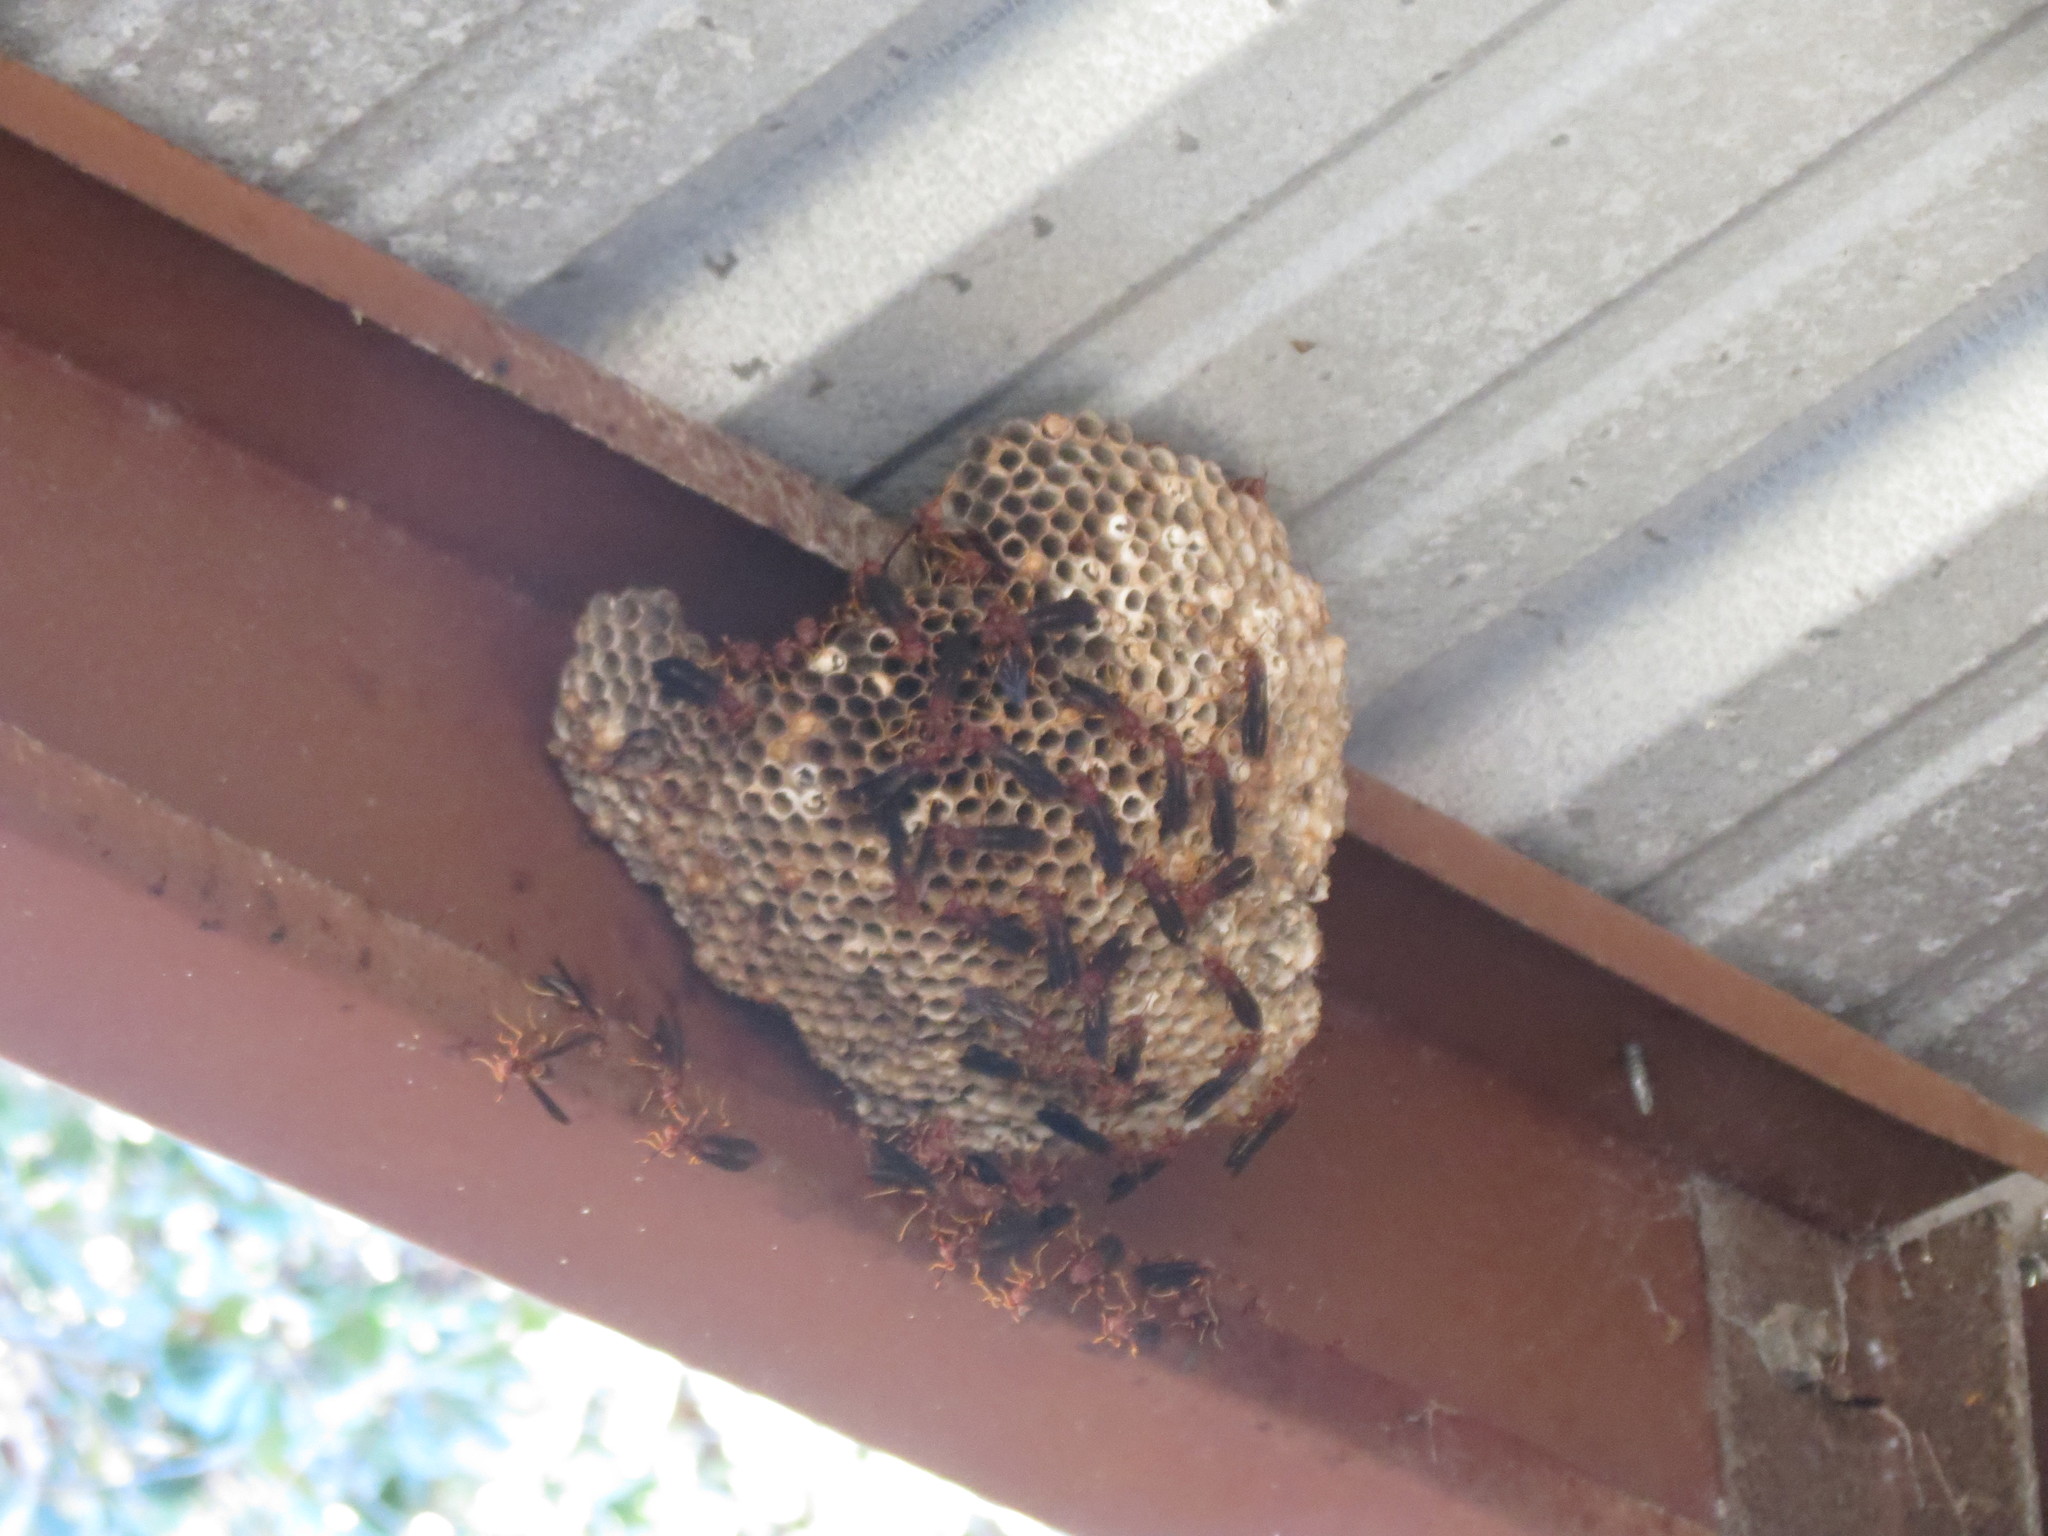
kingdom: Animalia
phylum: Arthropoda
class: Insecta
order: Hymenoptera
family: Eumenidae
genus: Polistes
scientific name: Polistes annularis
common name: Ringed paper wasp
